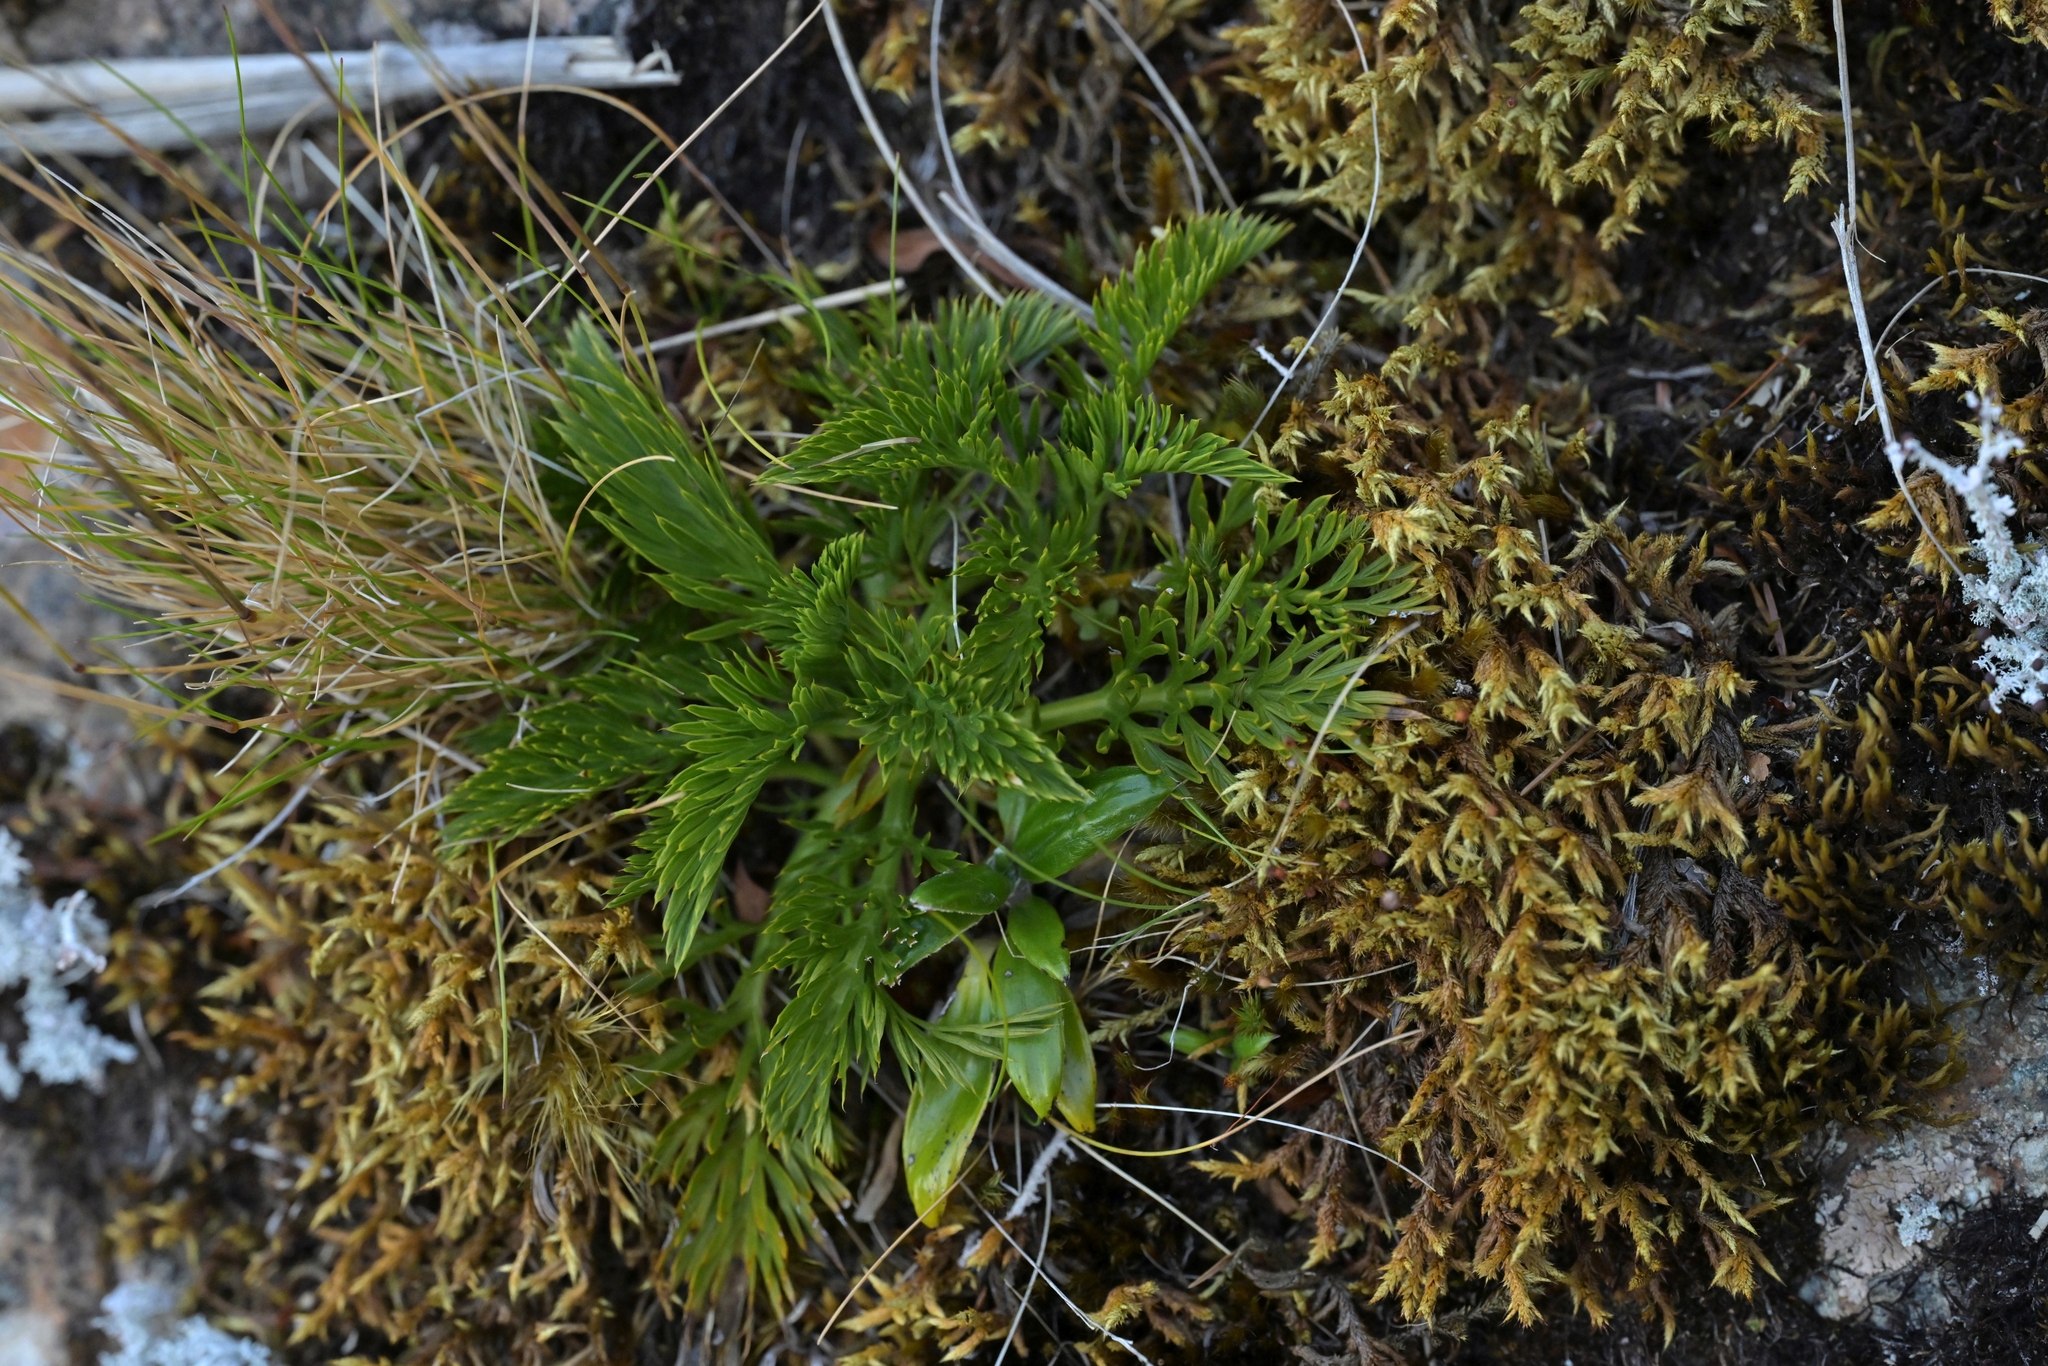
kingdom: Plantae
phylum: Tracheophyta
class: Magnoliopsida
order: Apiales
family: Apiaceae
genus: Aciphylla
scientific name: Aciphylla dissecta
